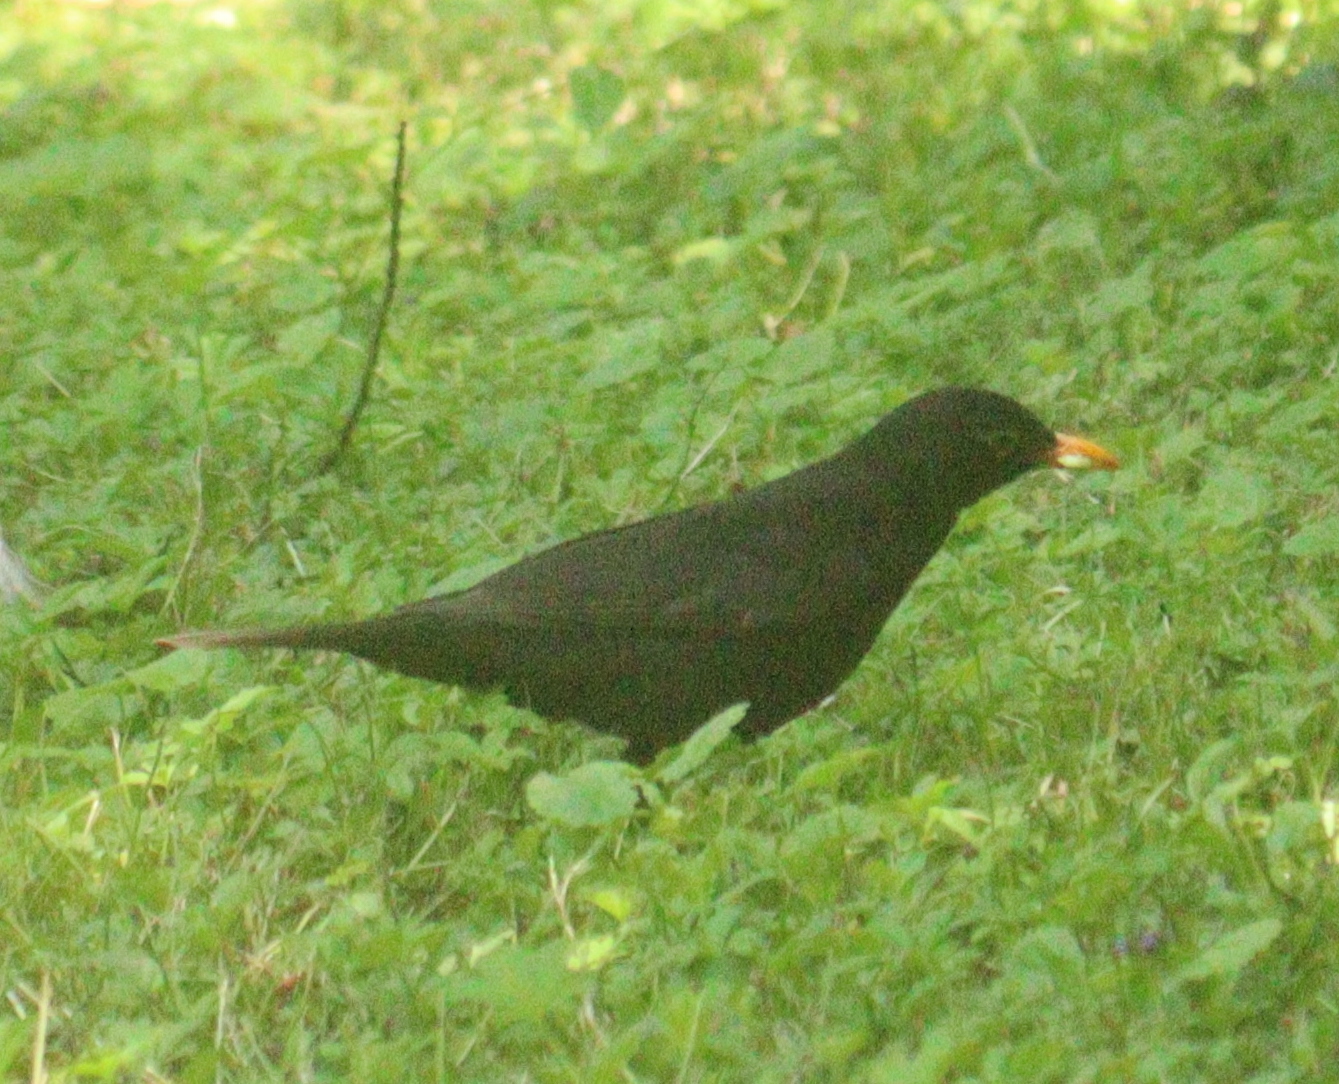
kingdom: Animalia
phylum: Chordata
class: Aves
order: Passeriformes
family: Turdidae
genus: Turdus
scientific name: Turdus merula
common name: Common blackbird
